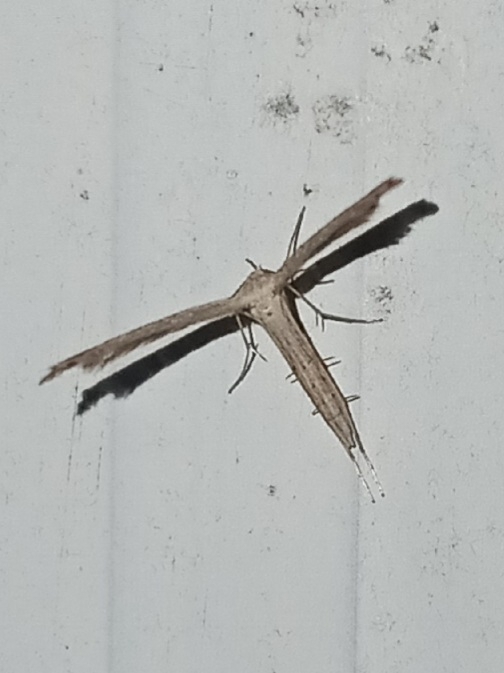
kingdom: Animalia
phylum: Arthropoda
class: Insecta
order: Lepidoptera
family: Pterophoridae
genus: Lioptilodes
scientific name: Lioptilodes albistriolatus
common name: Moth
